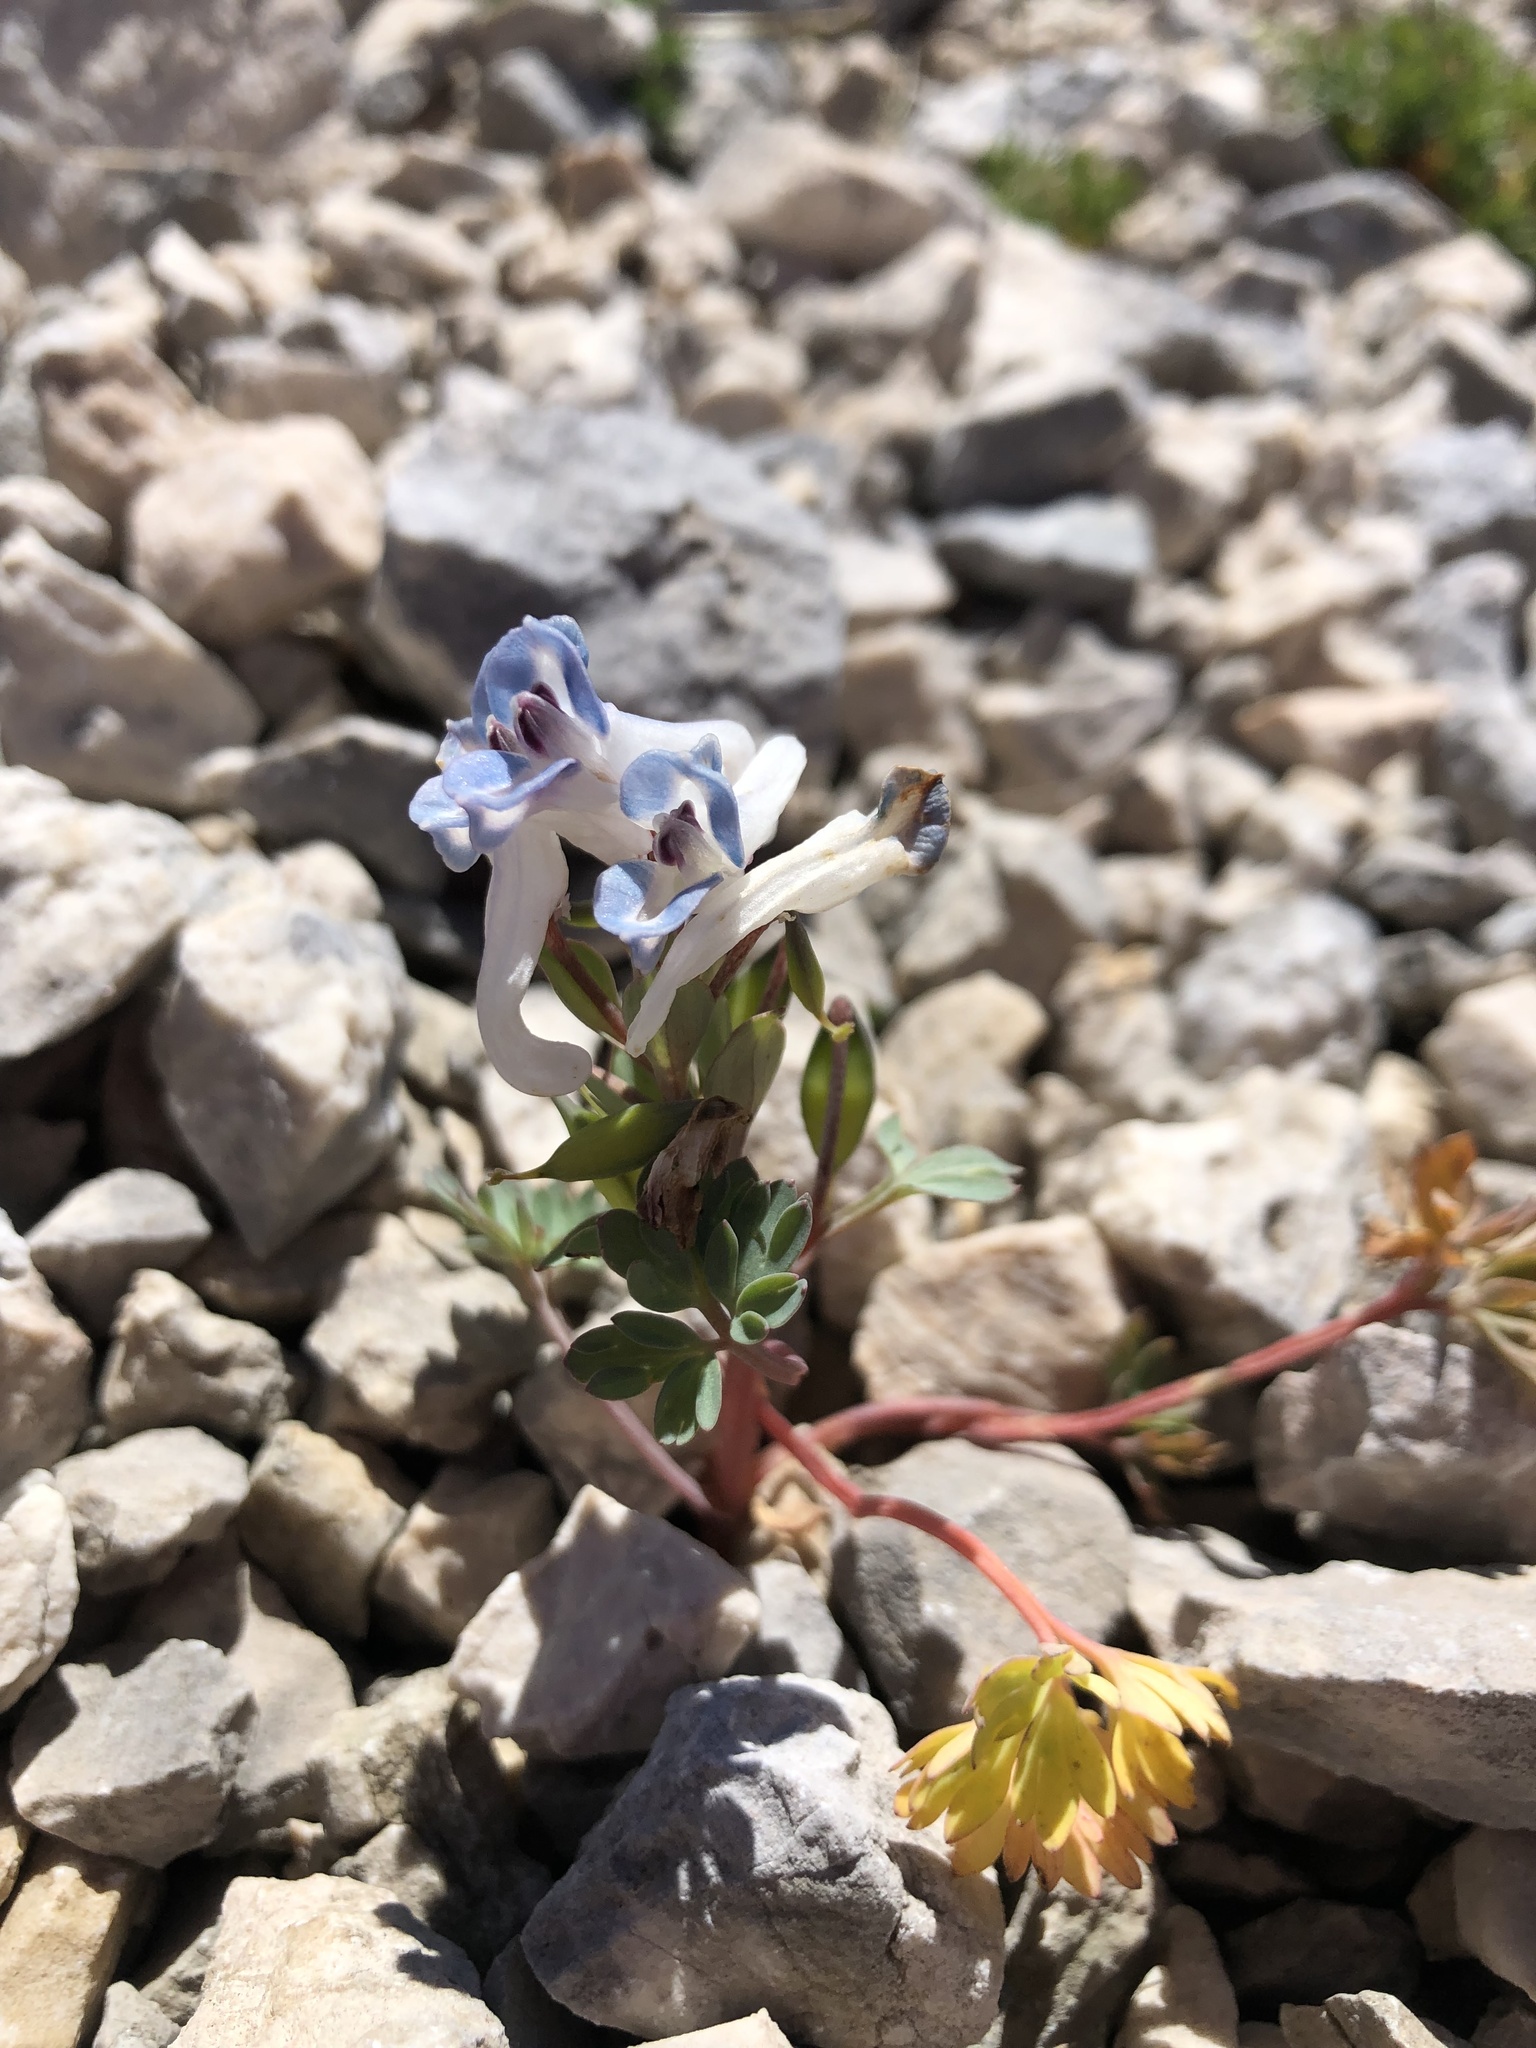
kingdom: Plantae
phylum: Tracheophyta
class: Magnoliopsida
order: Ranunculales
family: Papaveraceae
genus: Corydalis
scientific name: Corydalis alpestris
